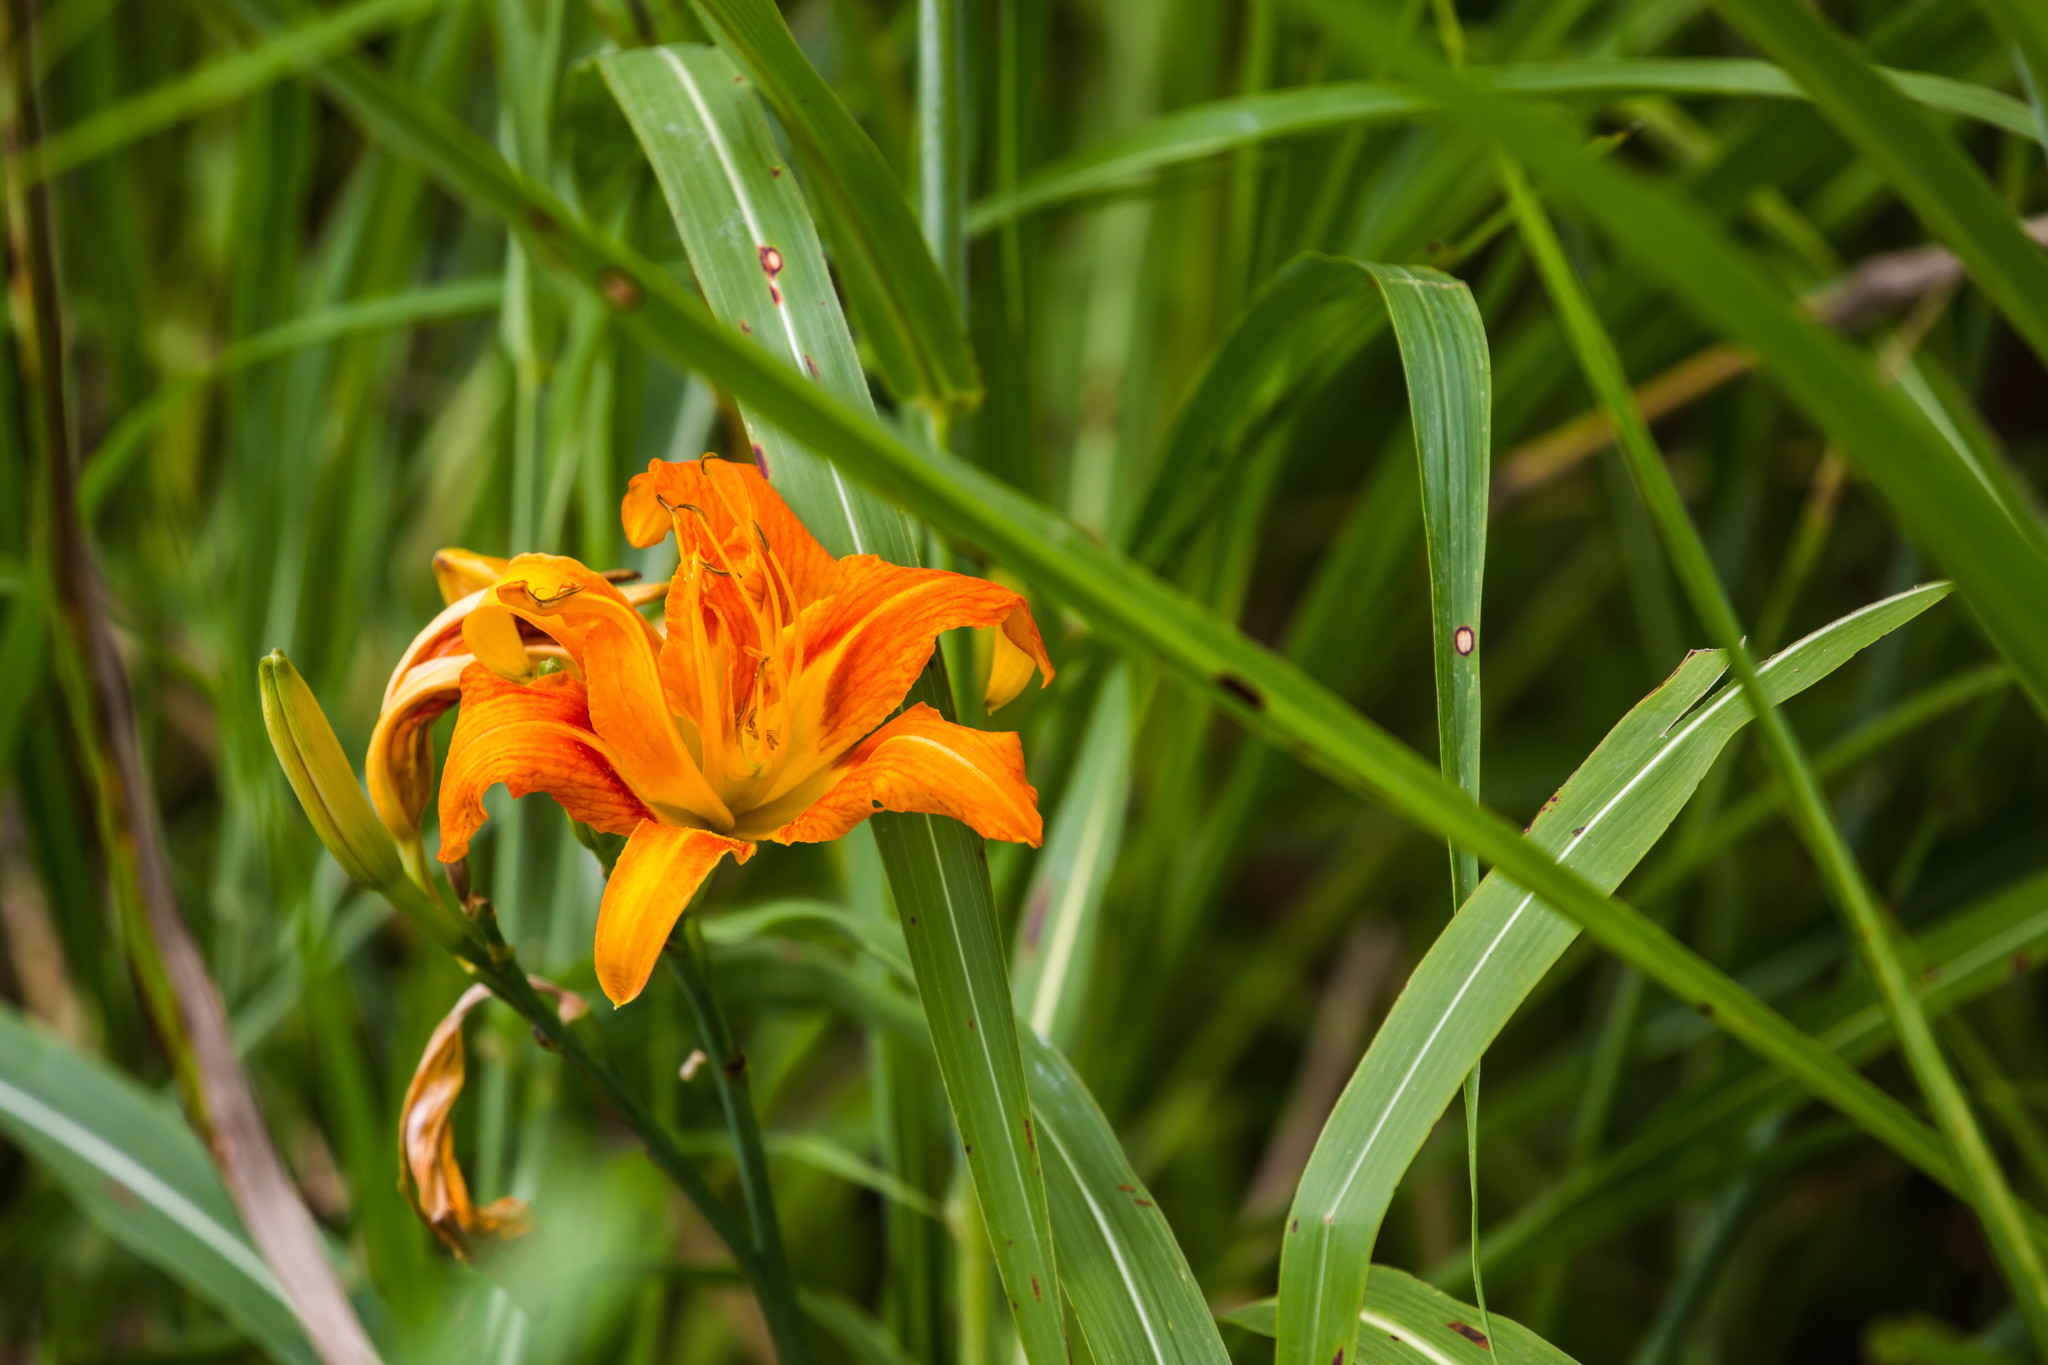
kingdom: Plantae
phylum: Tracheophyta
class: Liliopsida
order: Asparagales
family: Asphodelaceae
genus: Hemerocallis
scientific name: Hemerocallis fulva
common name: Orange day-lily
